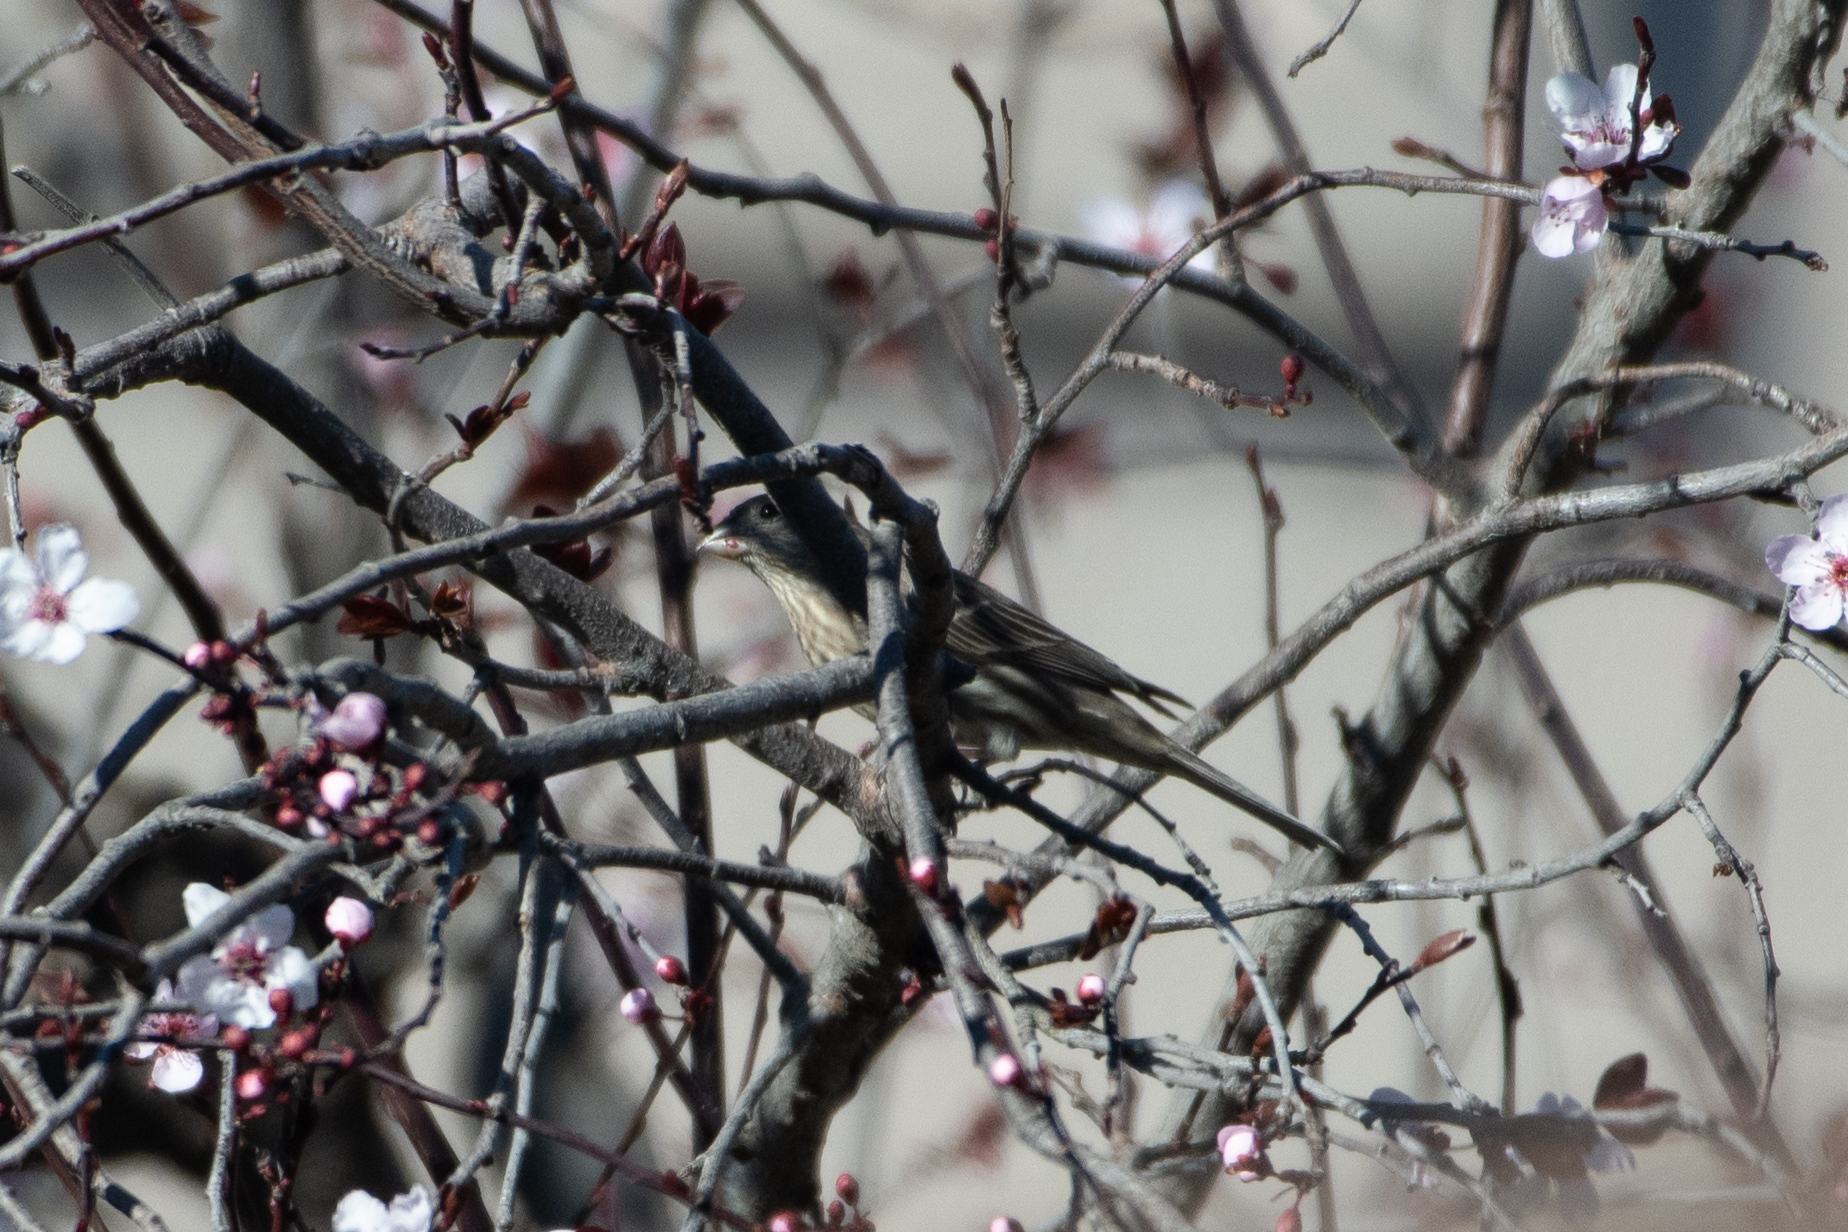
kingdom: Animalia
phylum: Chordata
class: Aves
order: Passeriformes
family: Fringillidae
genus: Haemorhous
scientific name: Haemorhous mexicanus
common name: House finch
